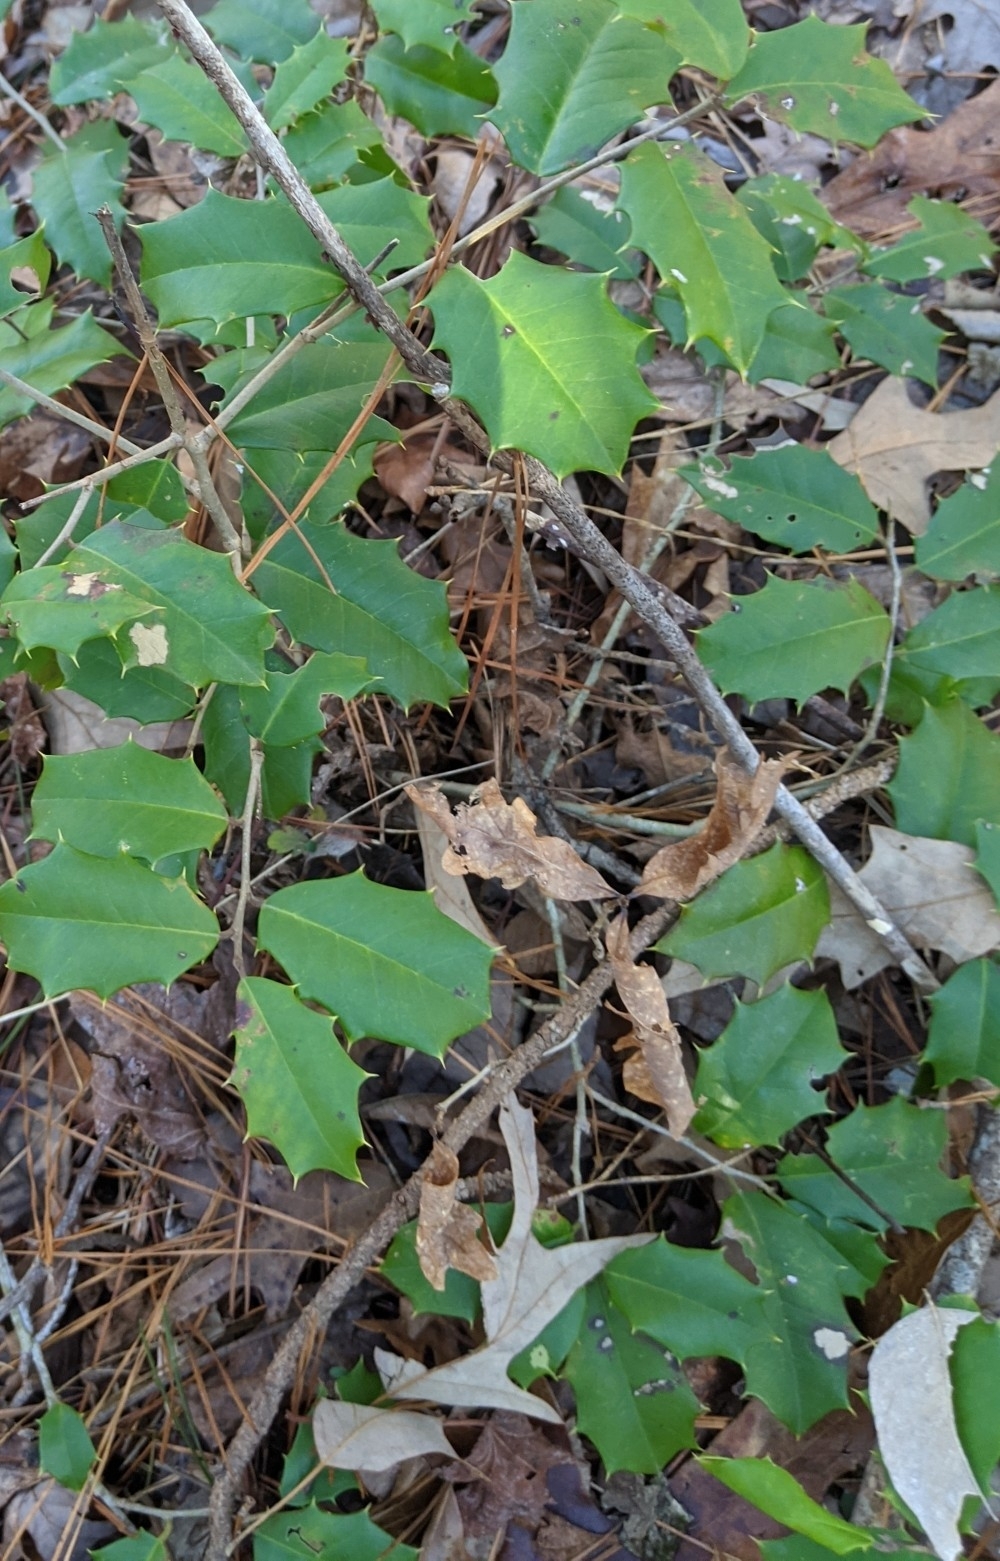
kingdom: Plantae
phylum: Tracheophyta
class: Magnoliopsida
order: Aquifoliales
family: Aquifoliaceae
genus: Ilex
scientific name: Ilex opaca
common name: American holly
